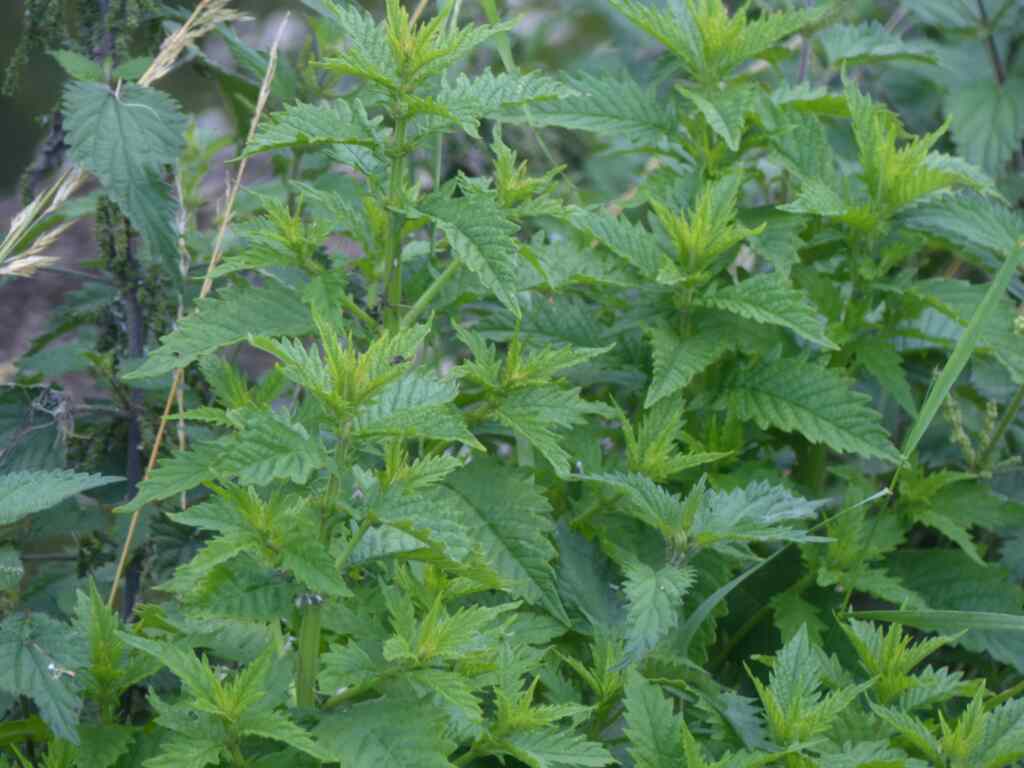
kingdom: Plantae
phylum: Tracheophyta
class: Magnoliopsida
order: Lamiales
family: Lamiaceae
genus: Lycopus
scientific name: Lycopus europaeus
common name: European bugleweed
